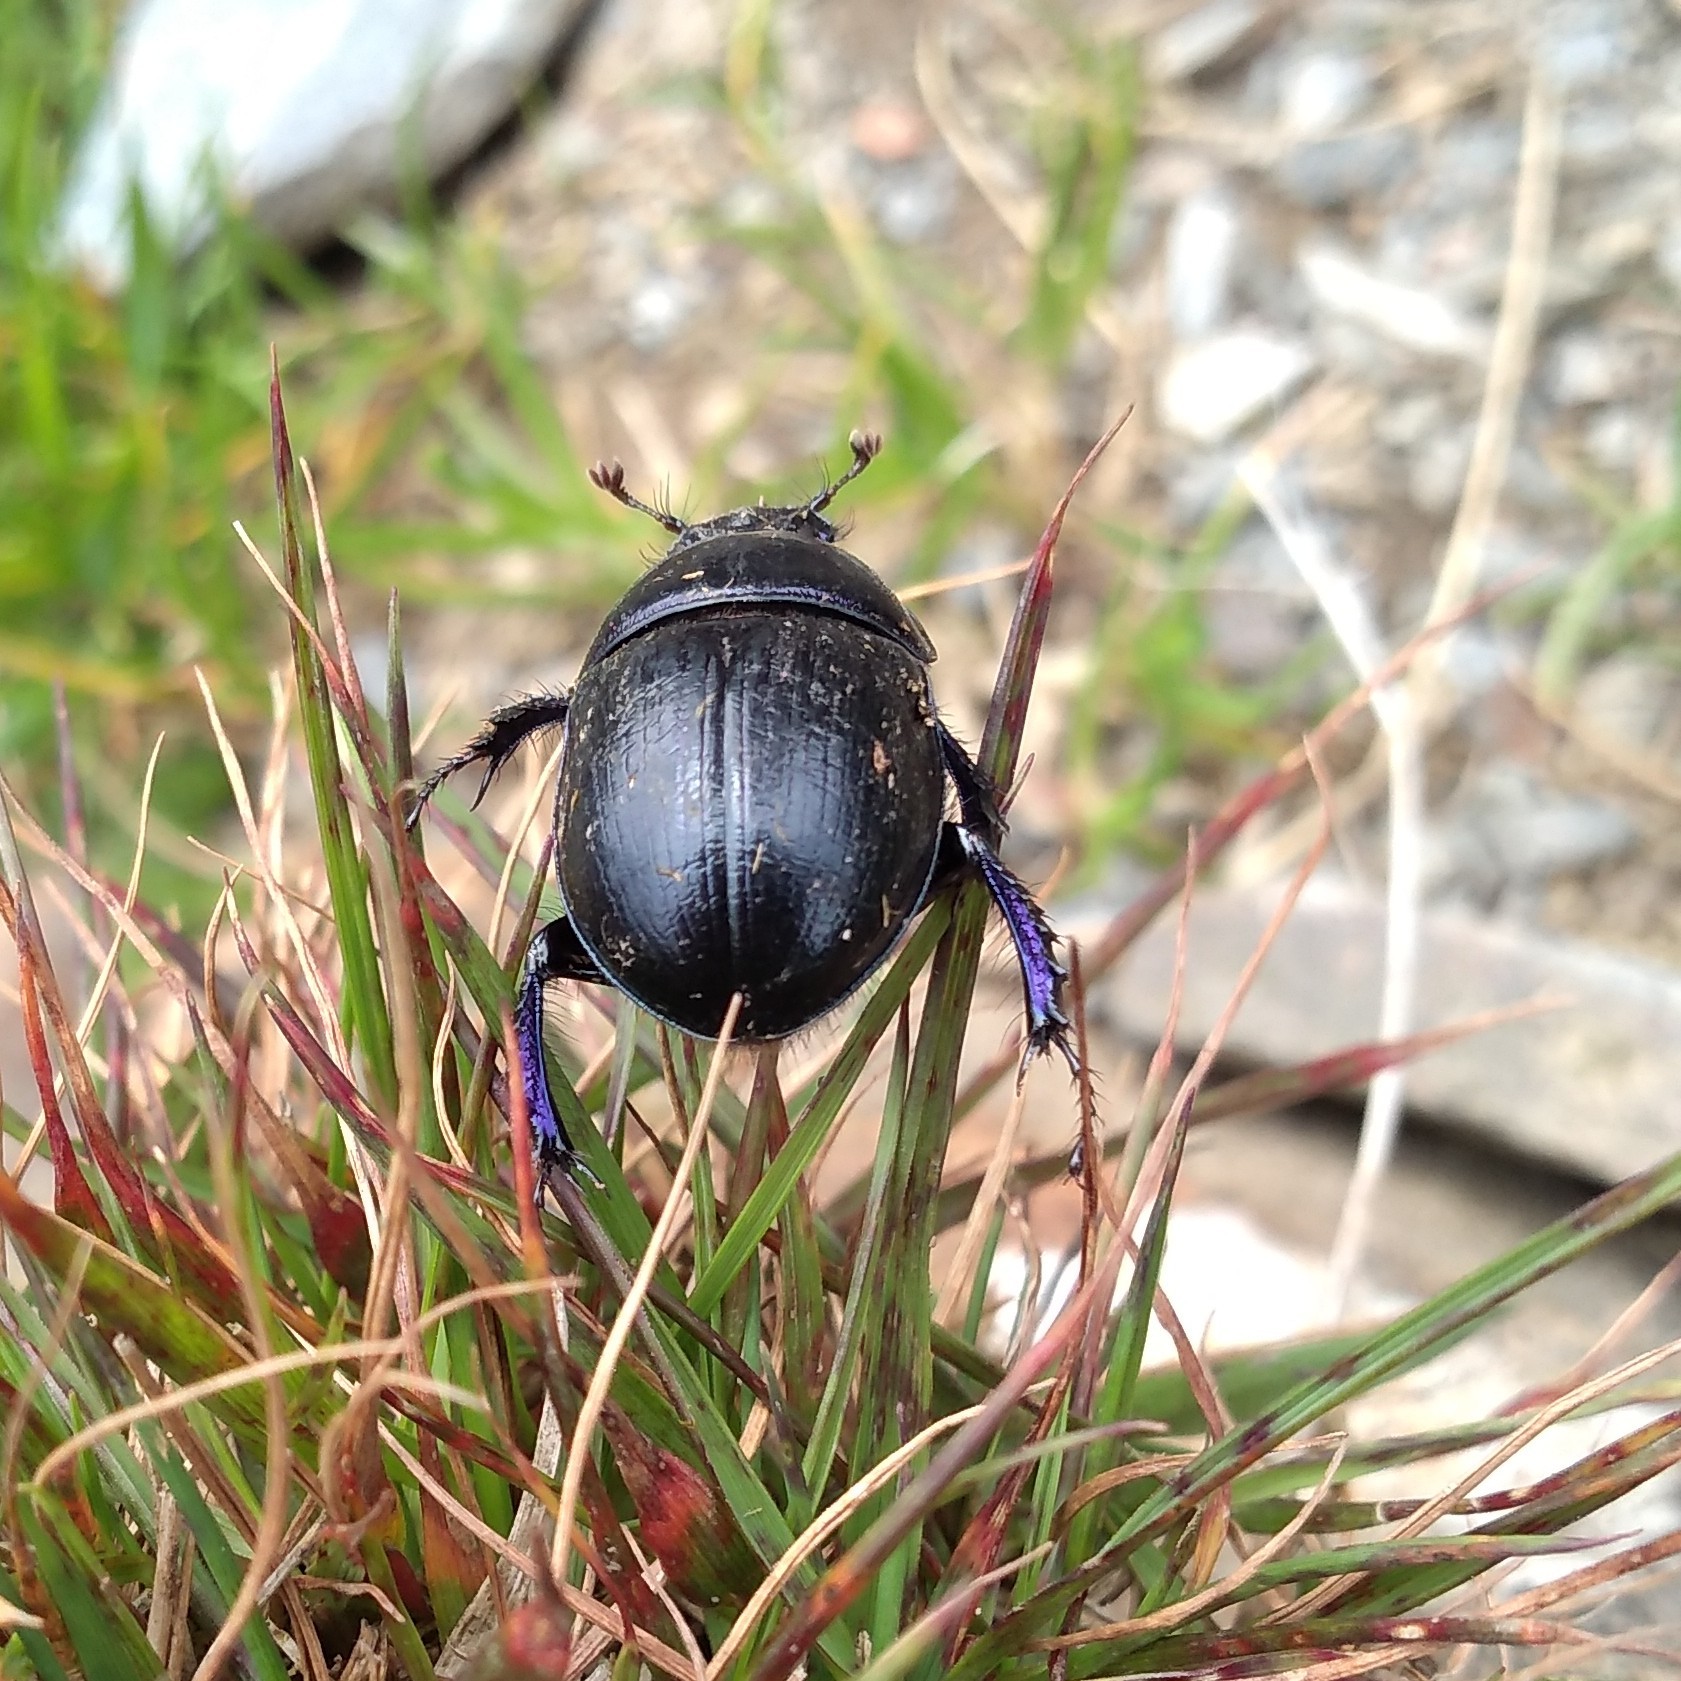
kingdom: Animalia
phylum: Arthropoda
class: Insecta
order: Coleoptera
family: Geotrupidae
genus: Anoplotrupes
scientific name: Anoplotrupes stercorosus
